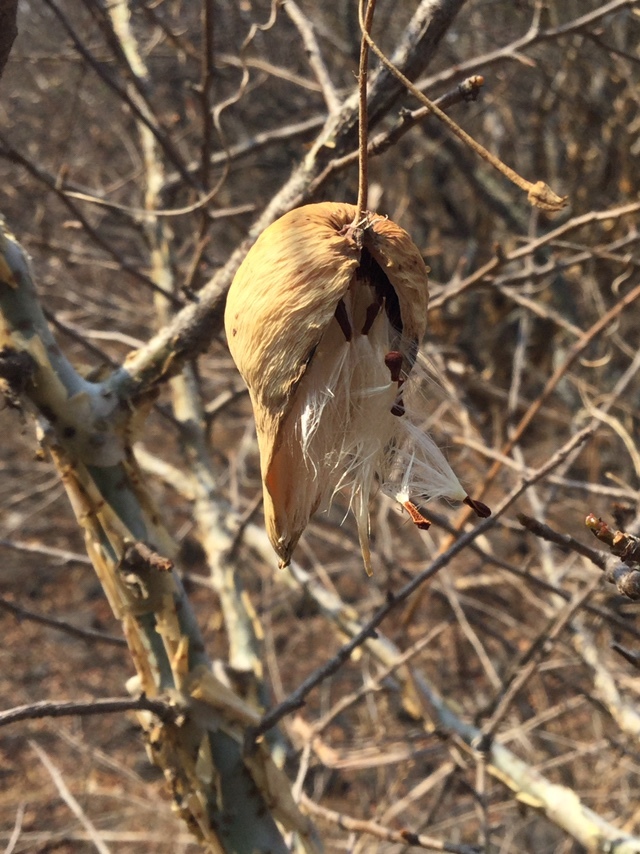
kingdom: Plantae
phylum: Tracheophyta
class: Magnoliopsida
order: Gentianales
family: Apocynaceae
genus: Funastrum
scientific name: Funastrum pannosum
